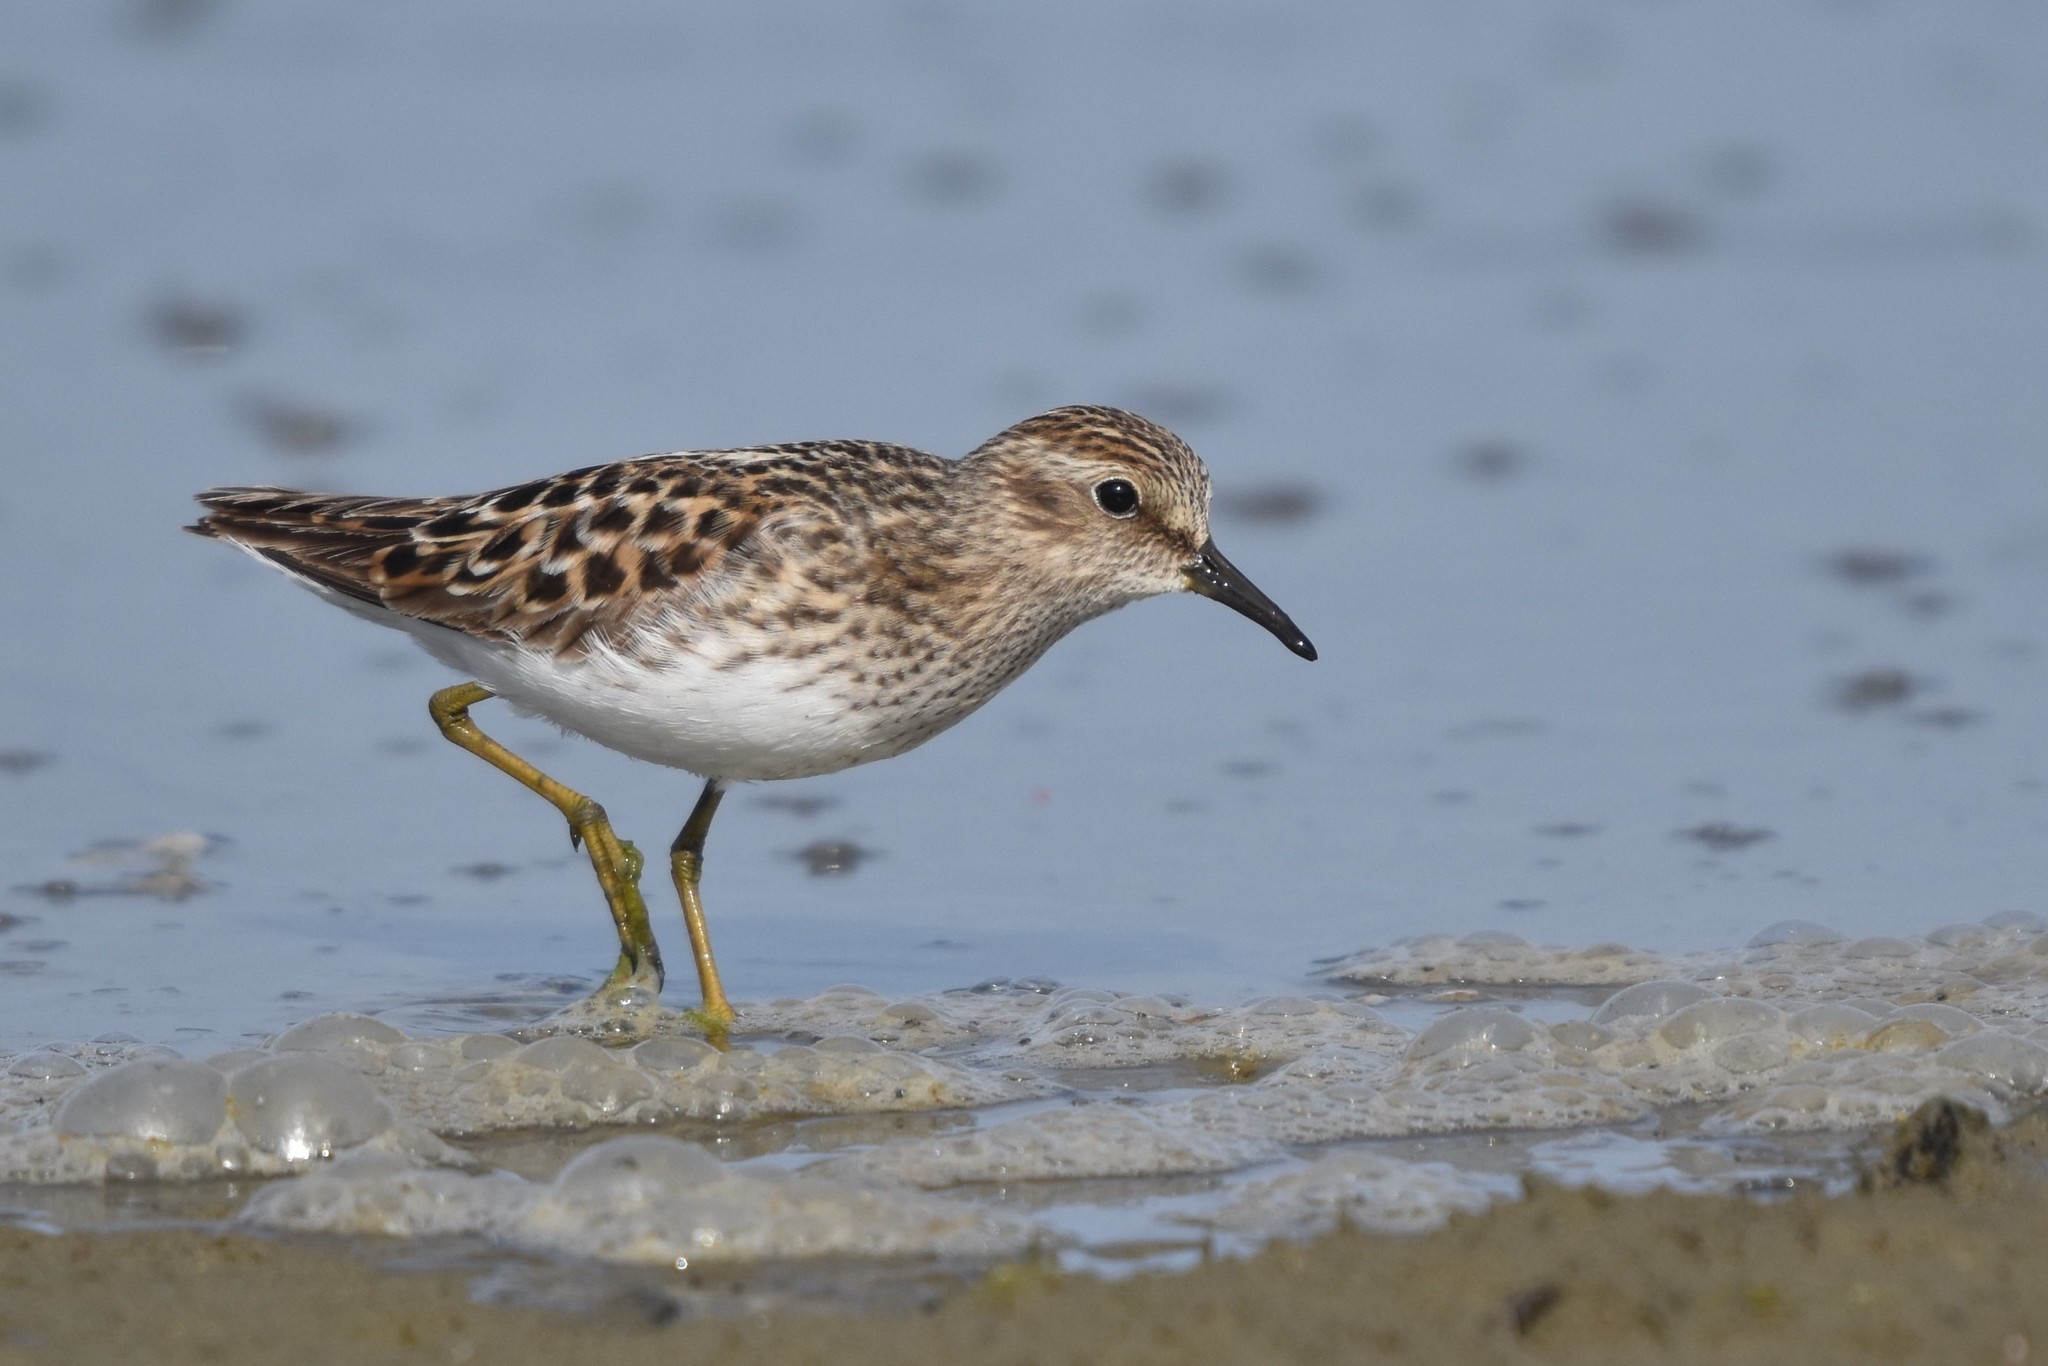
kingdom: Animalia
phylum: Chordata
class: Aves
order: Charadriiformes
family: Scolopacidae
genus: Calidris
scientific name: Calidris minutilla
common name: Least sandpiper
